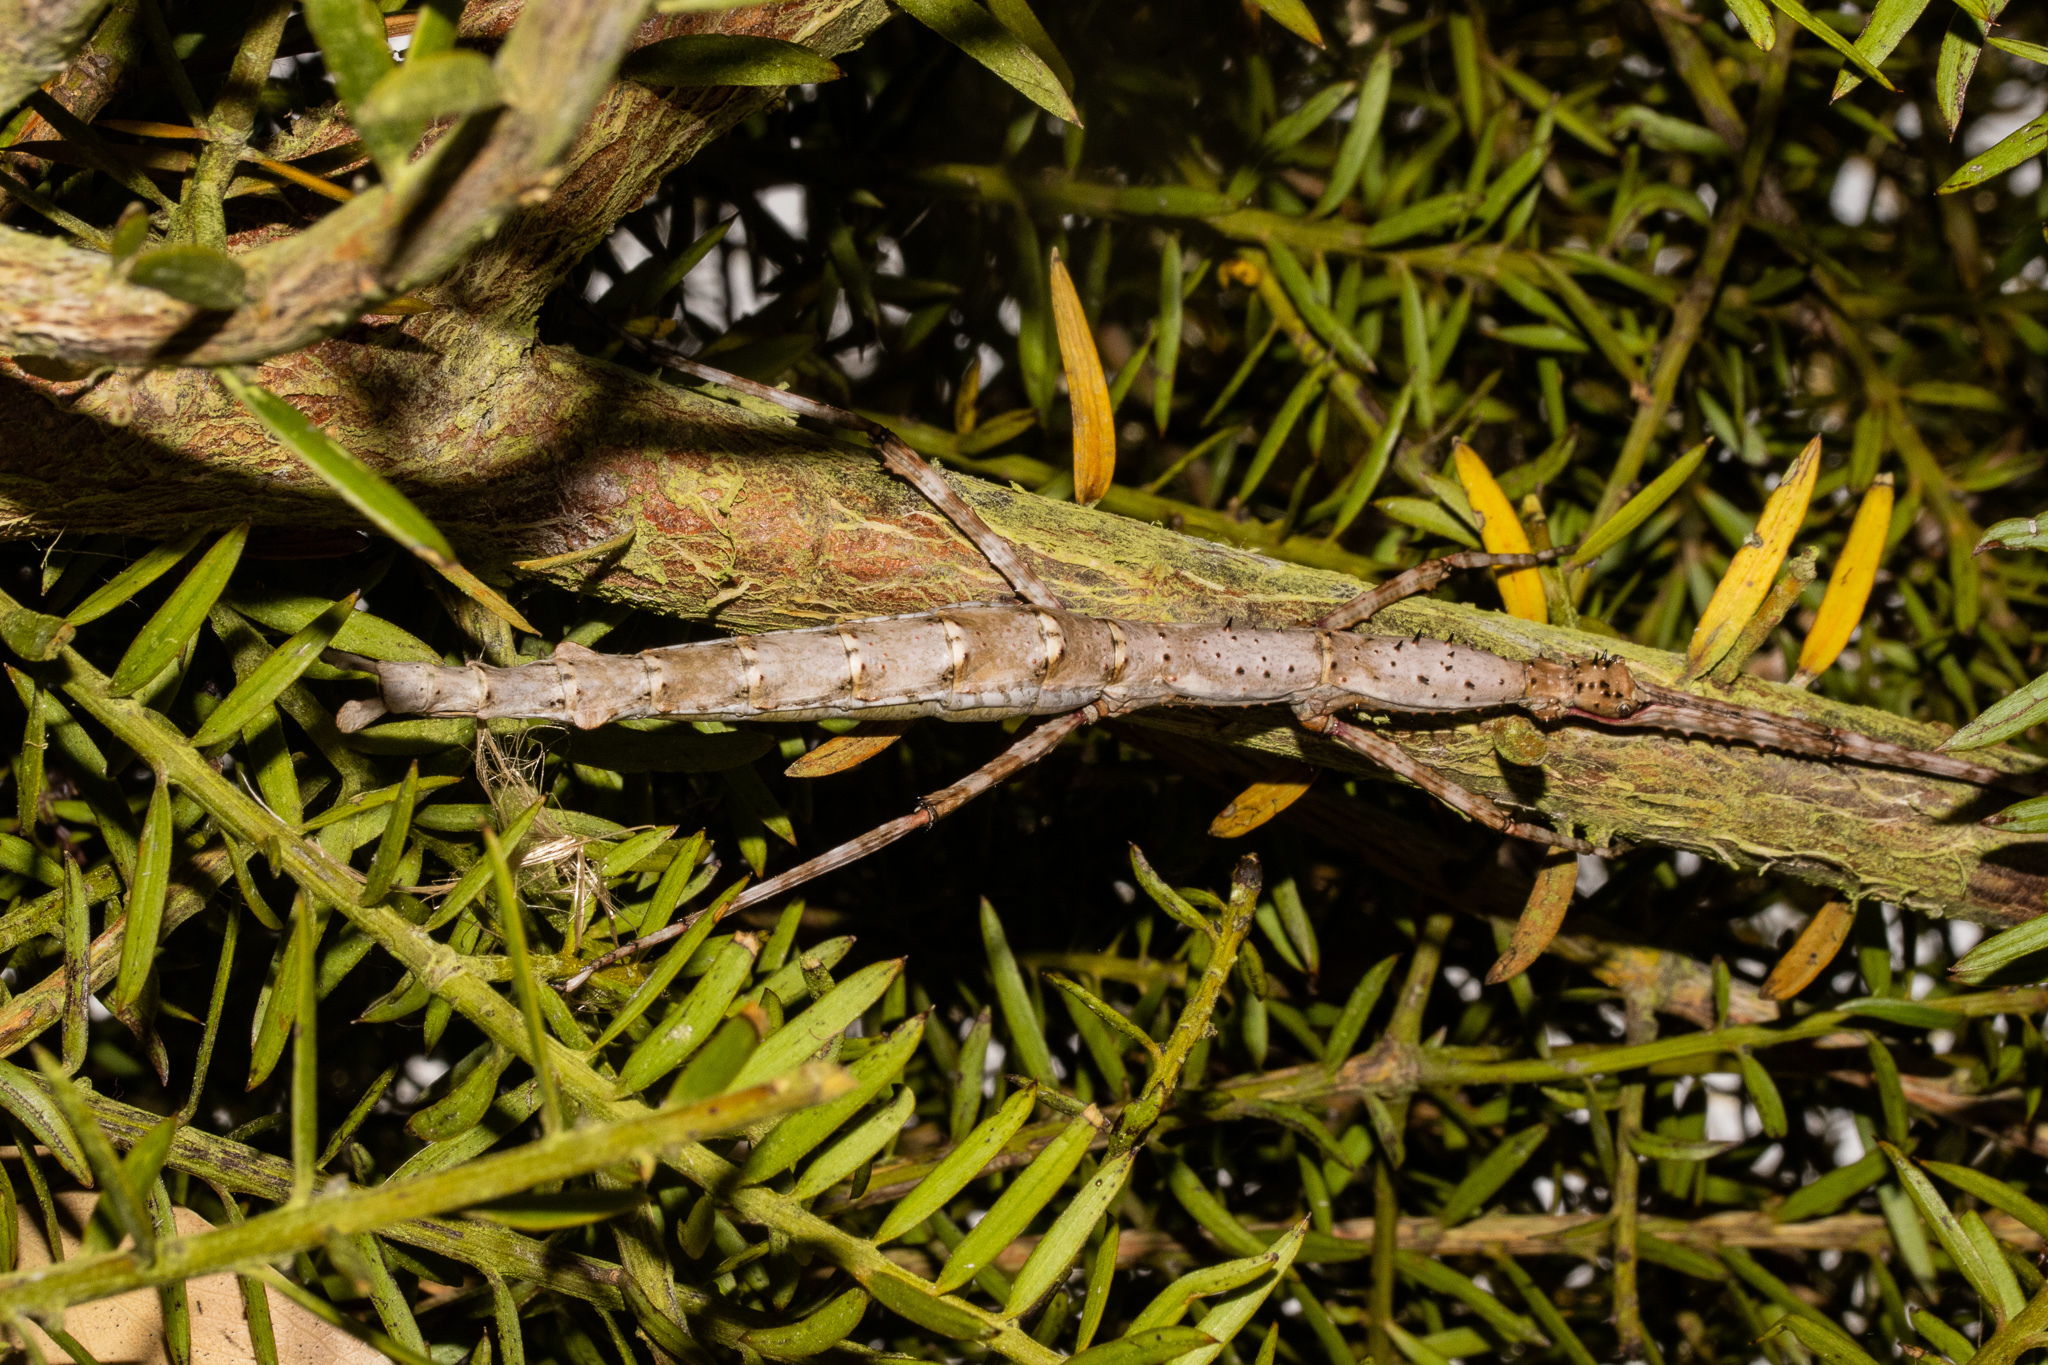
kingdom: Animalia
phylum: Arthropoda
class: Insecta
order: Phasmida
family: Phasmatidae
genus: Acanthoxyla
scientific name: Acanthoxyla geisovii
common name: Prickly stick insect
